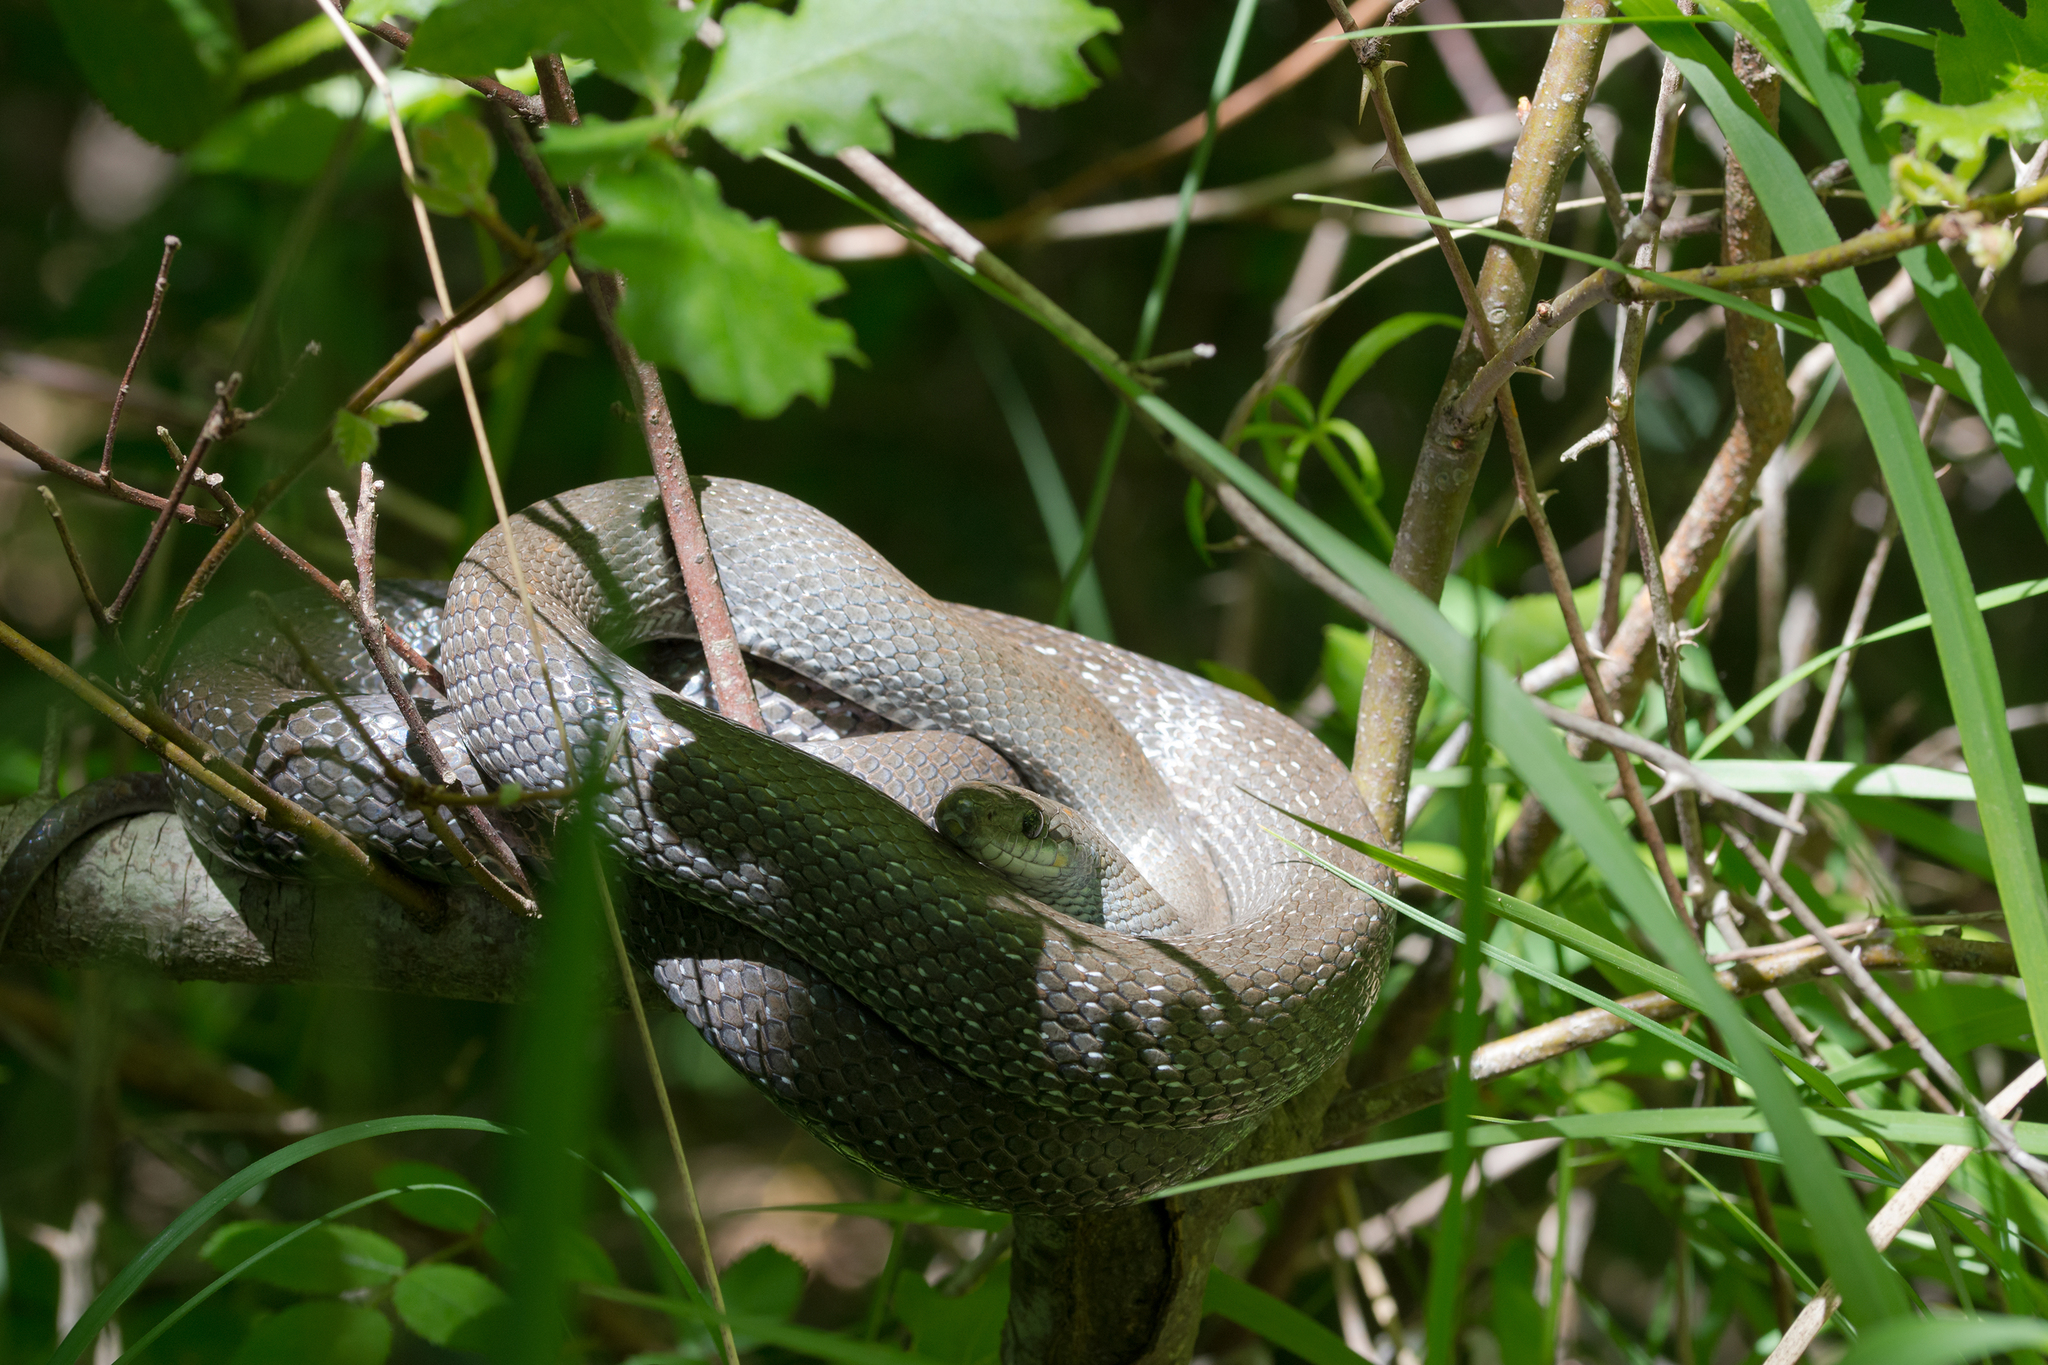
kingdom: Animalia
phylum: Chordata
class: Squamata
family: Colubridae
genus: Zamenis
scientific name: Zamenis longissimus
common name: Aesculapean snake
